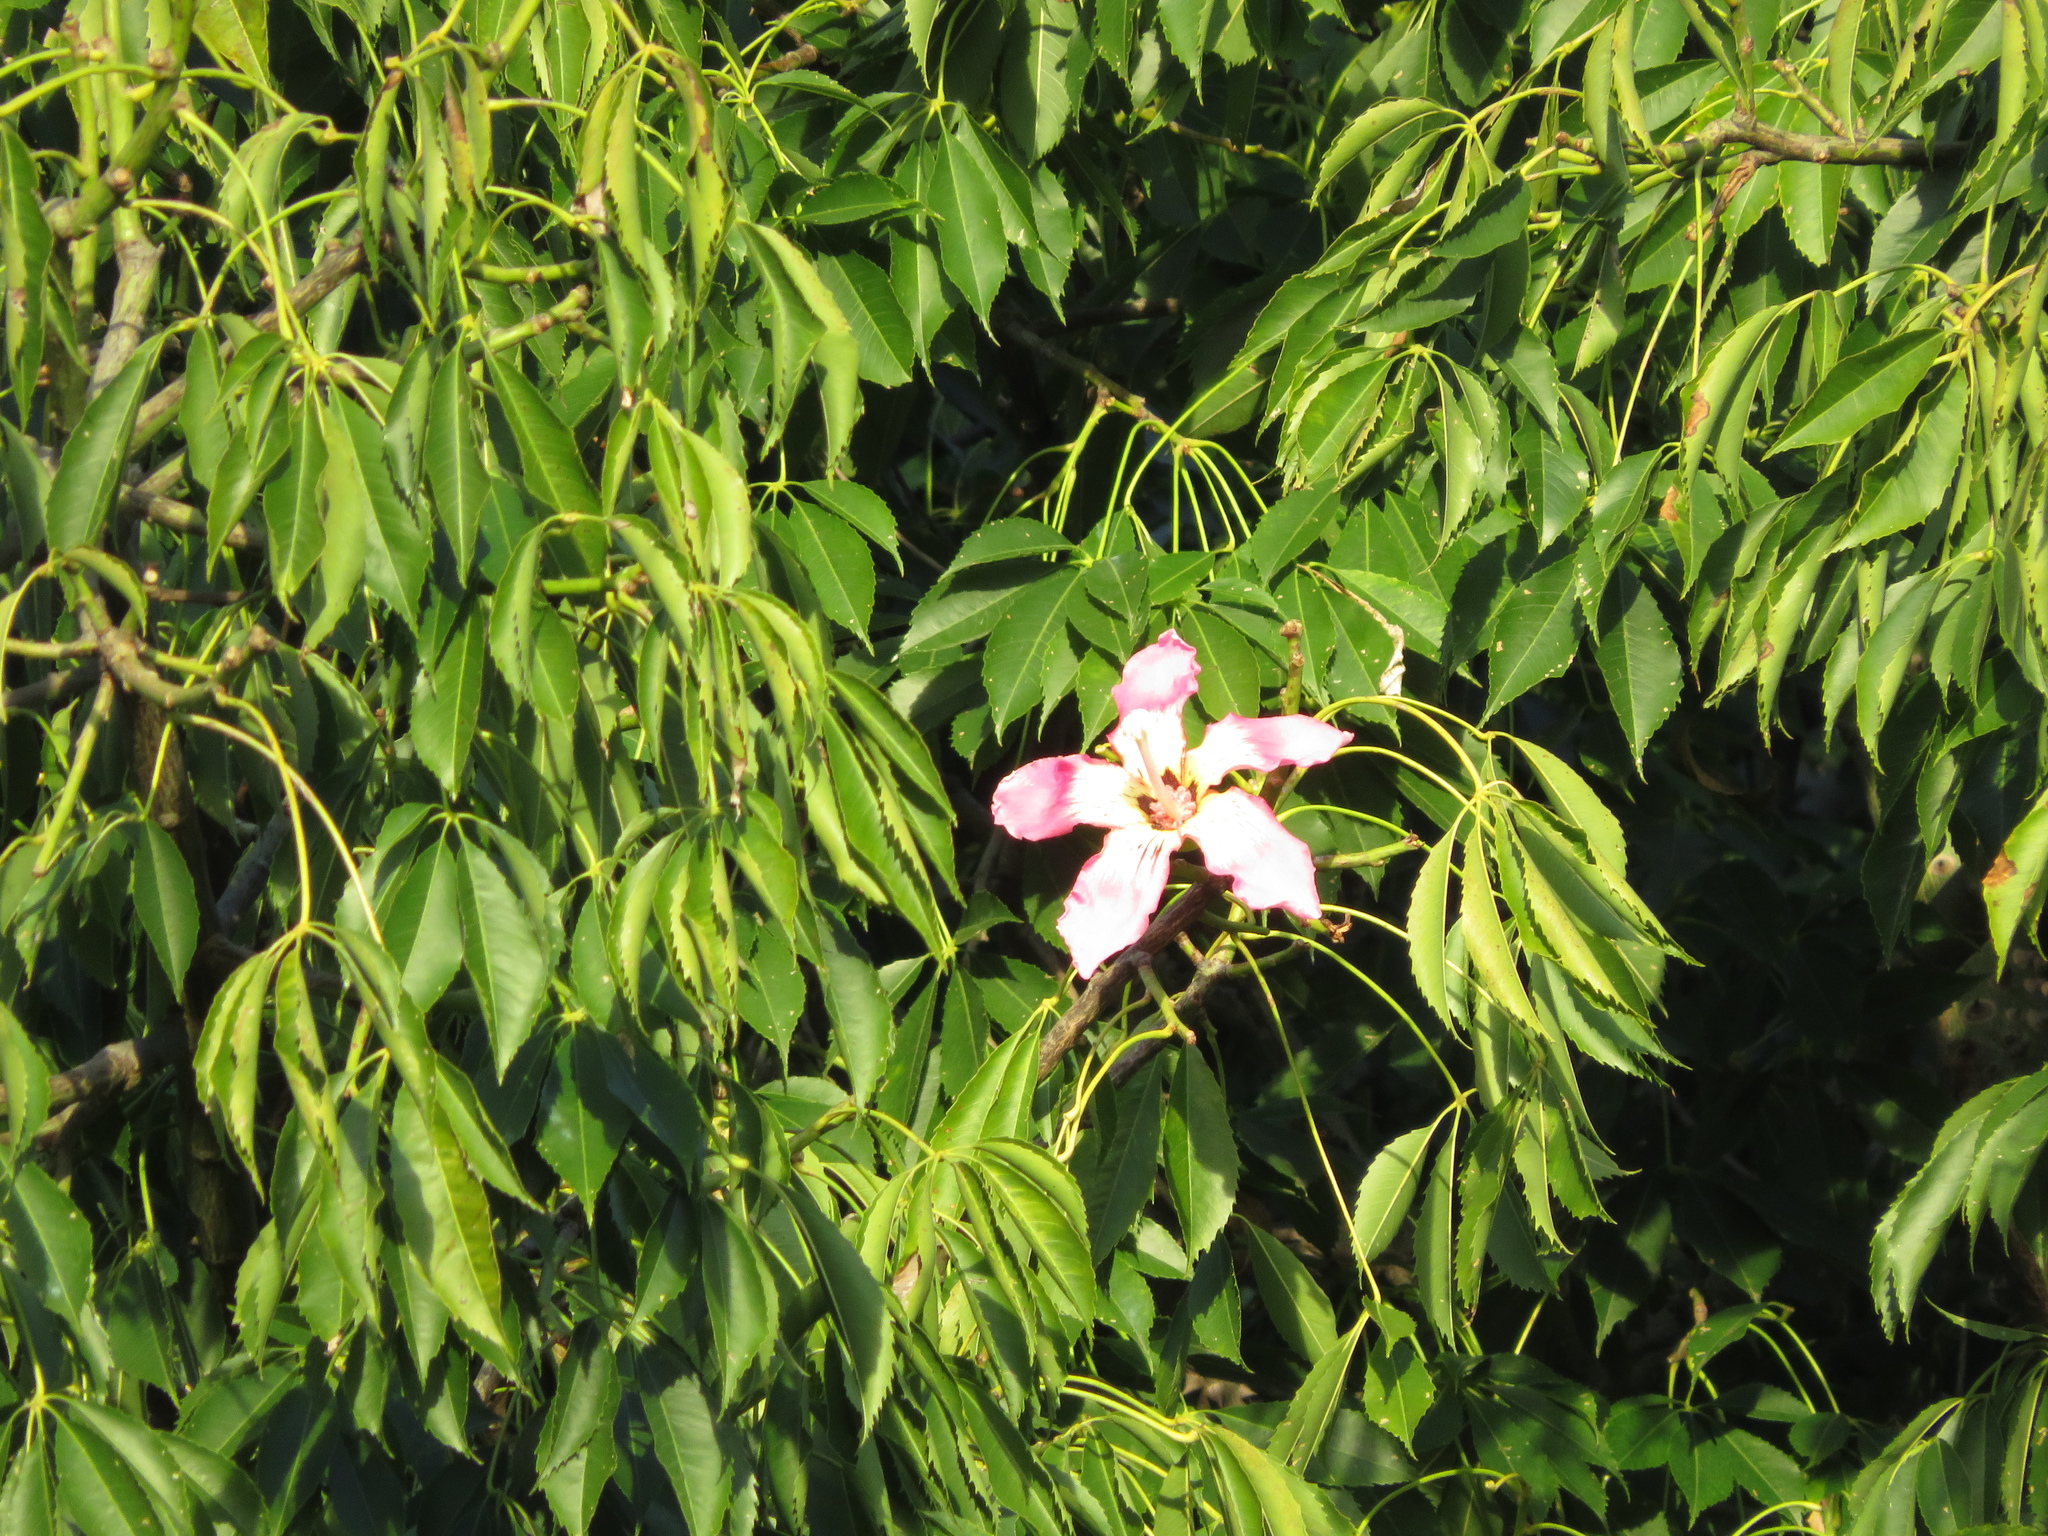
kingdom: Plantae
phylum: Tracheophyta
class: Magnoliopsida
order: Malvales
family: Malvaceae
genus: Ceiba
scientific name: Ceiba speciosa
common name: Silk-floss tree
